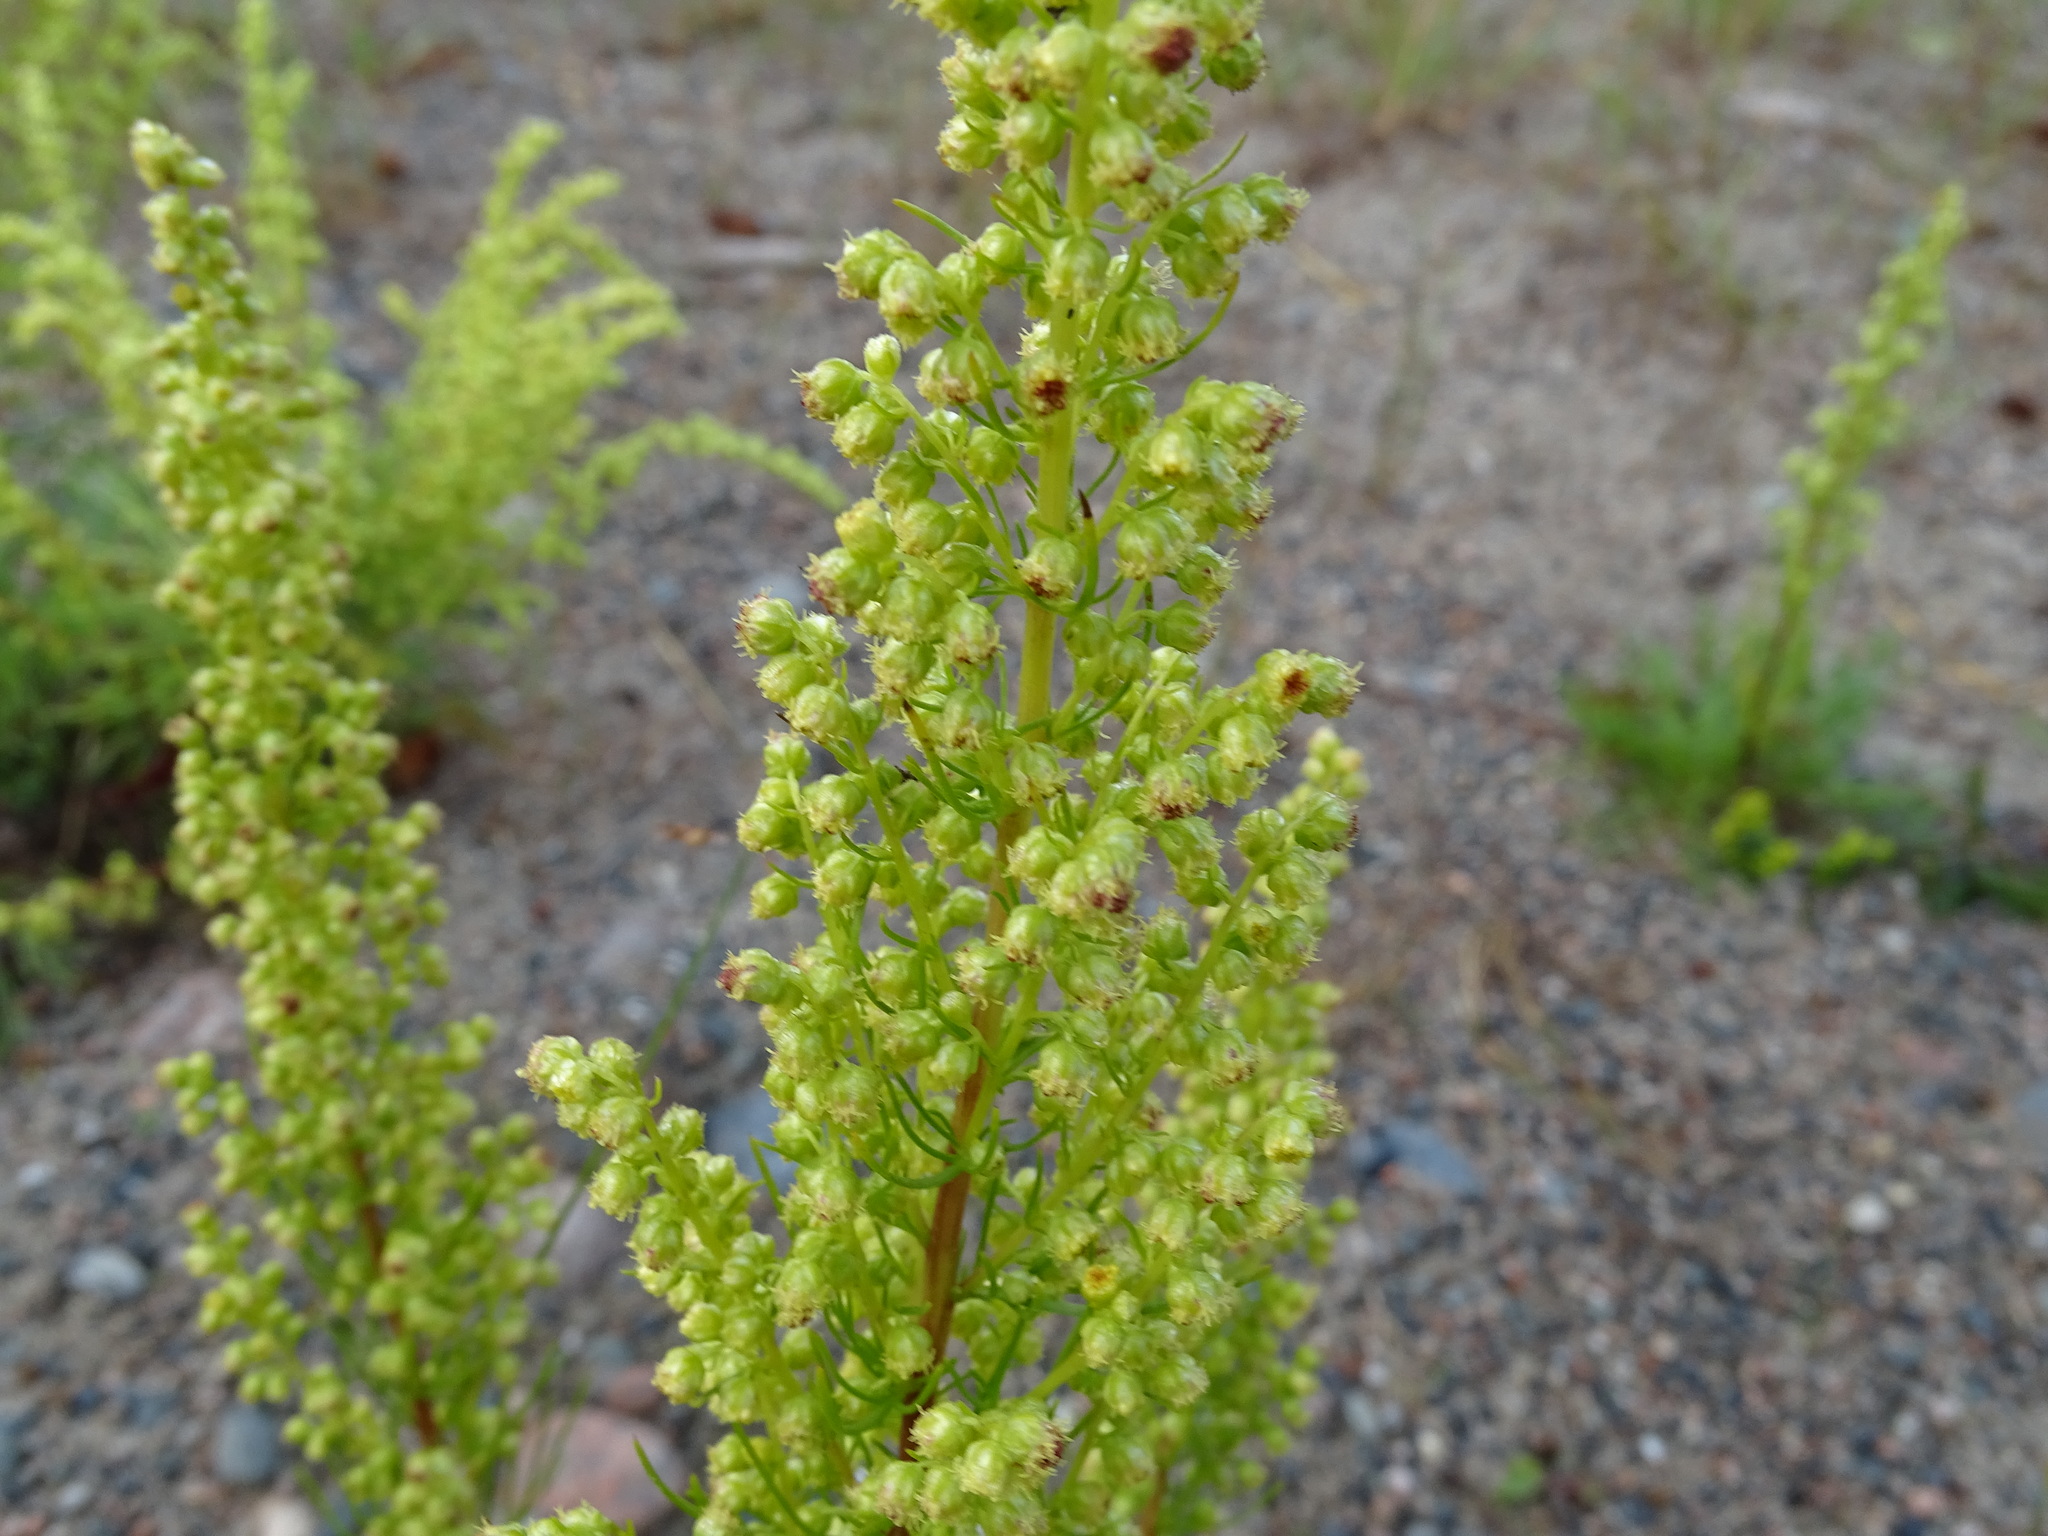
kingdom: Plantae
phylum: Tracheophyta
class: Magnoliopsida
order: Asterales
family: Asteraceae
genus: Artemisia
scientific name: Artemisia campestris
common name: Field wormwood
